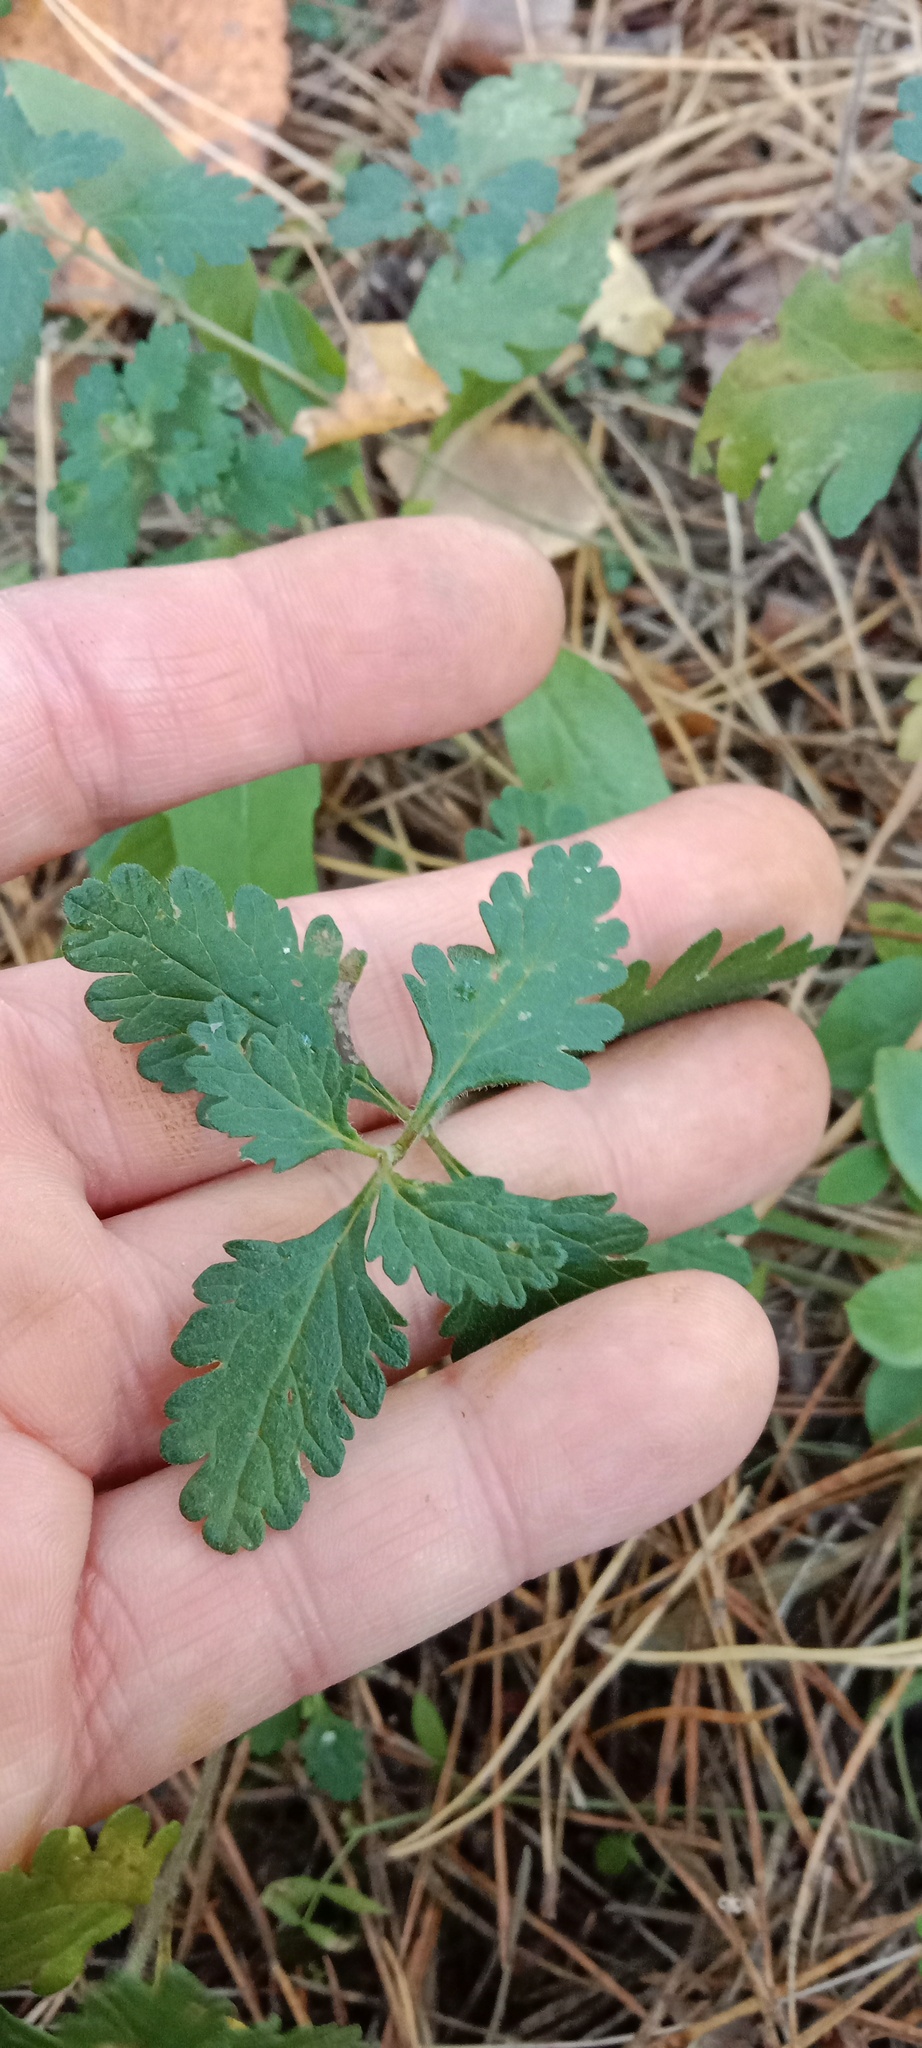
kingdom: Plantae
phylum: Tracheophyta
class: Magnoliopsida
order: Lamiales
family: Lamiaceae
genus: Teucrium
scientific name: Teucrium chamaedrys
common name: Wall germander
